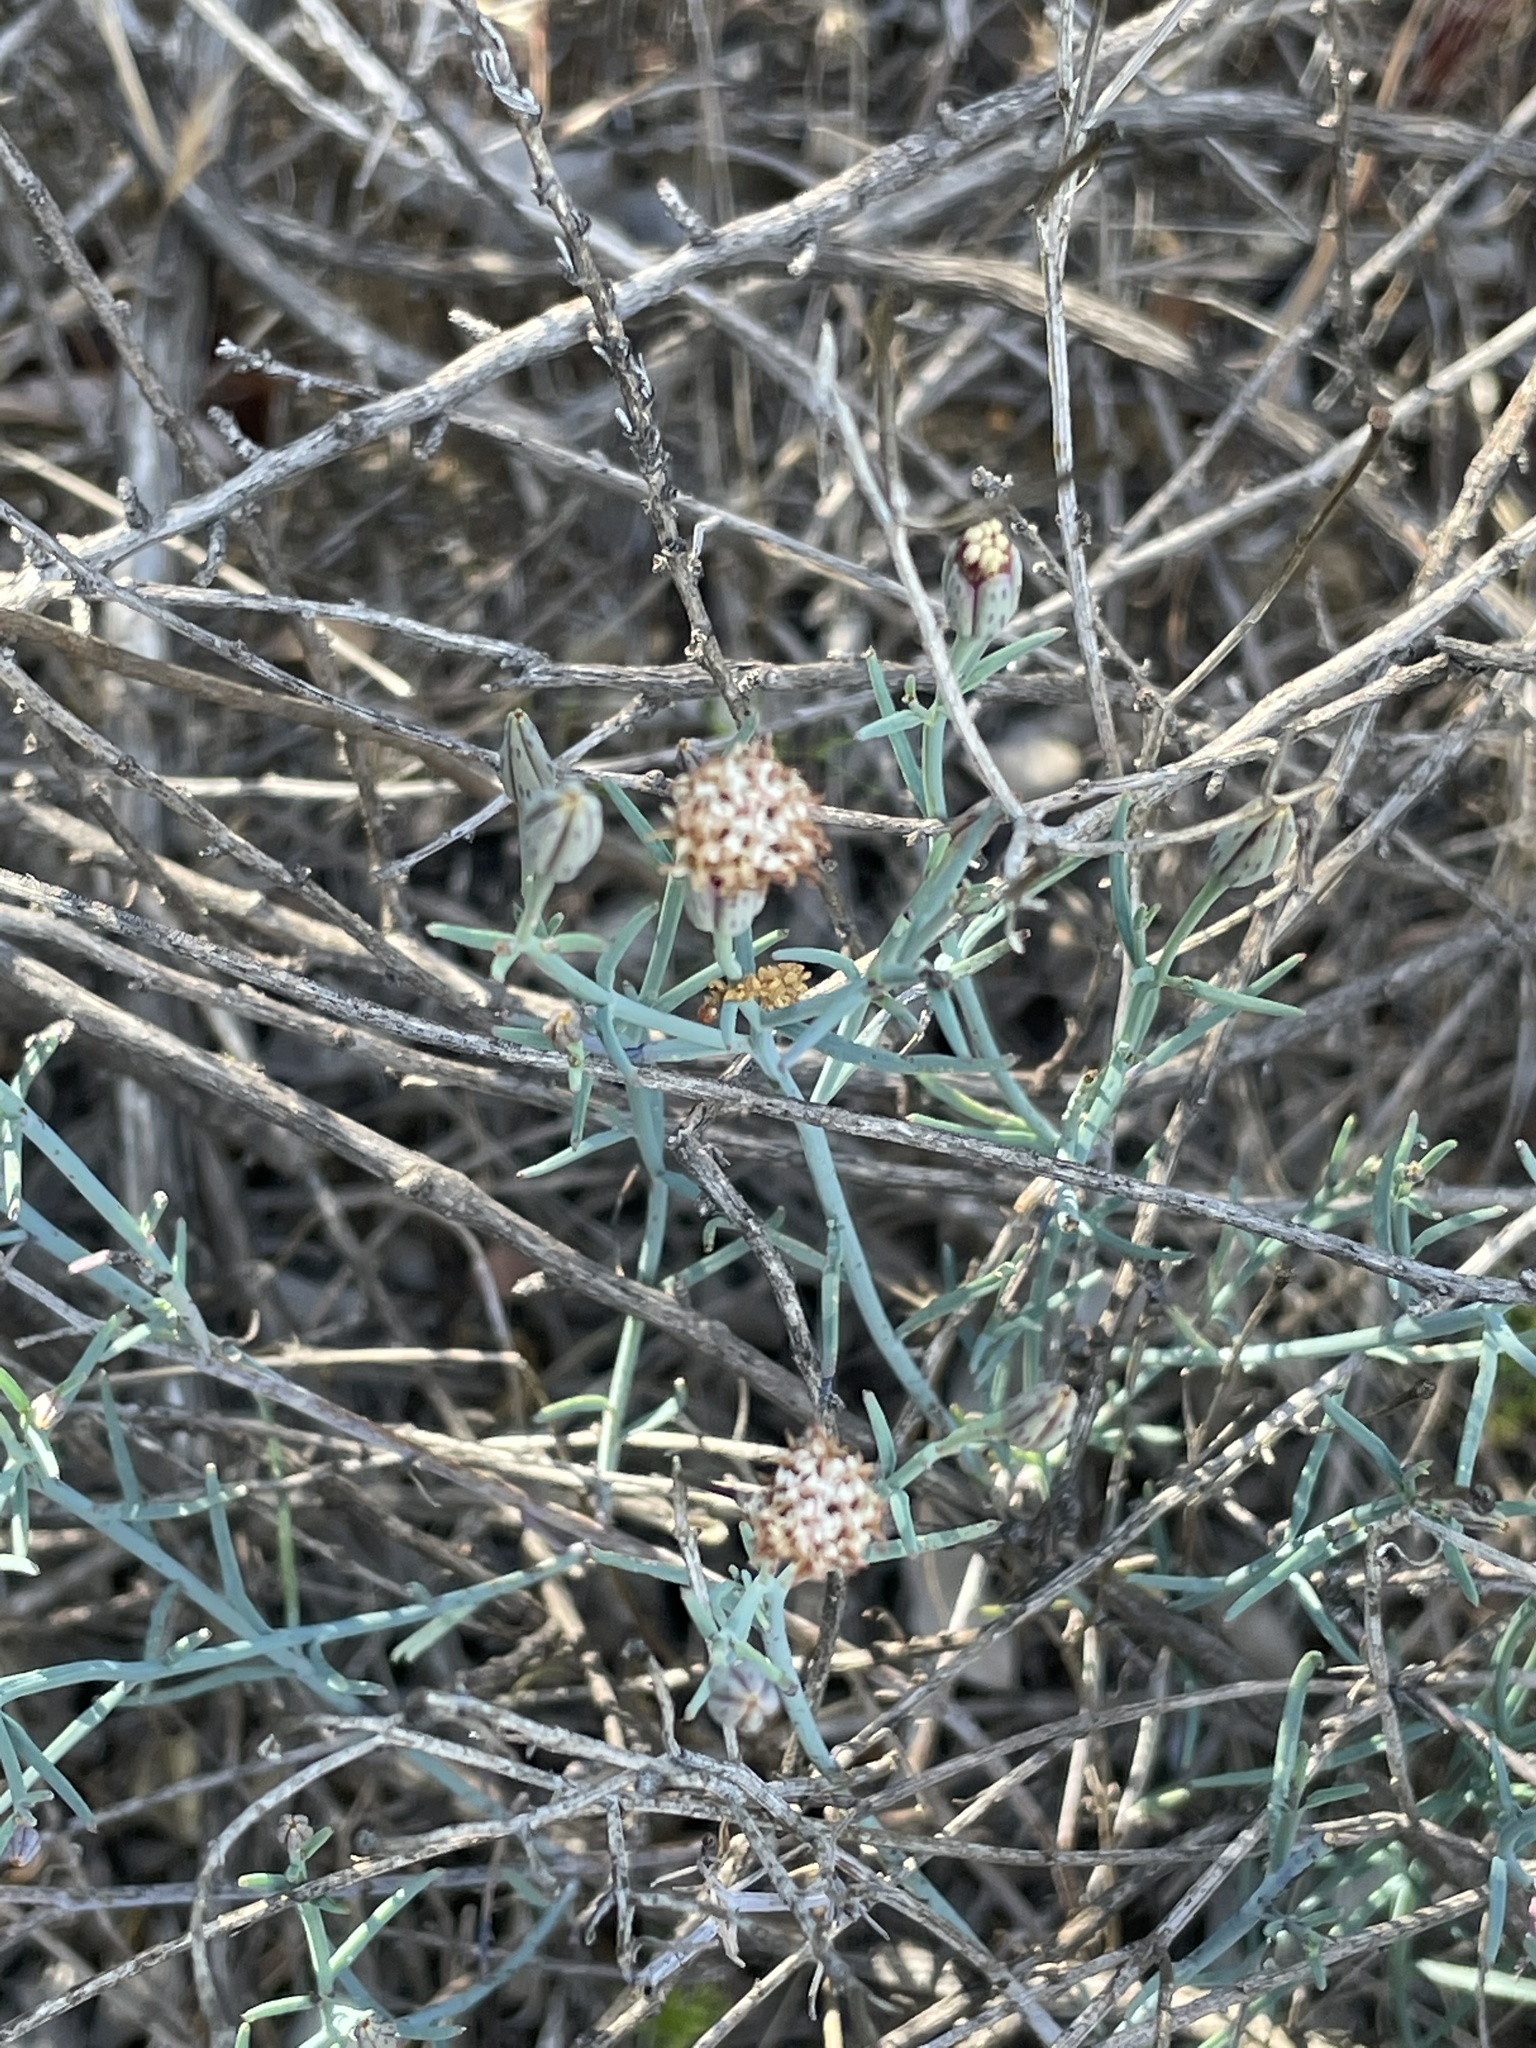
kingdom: Plantae
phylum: Tracheophyta
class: Magnoliopsida
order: Asterales
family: Asteraceae
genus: Porophyllum
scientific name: Porophyllum gracile
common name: Odora
